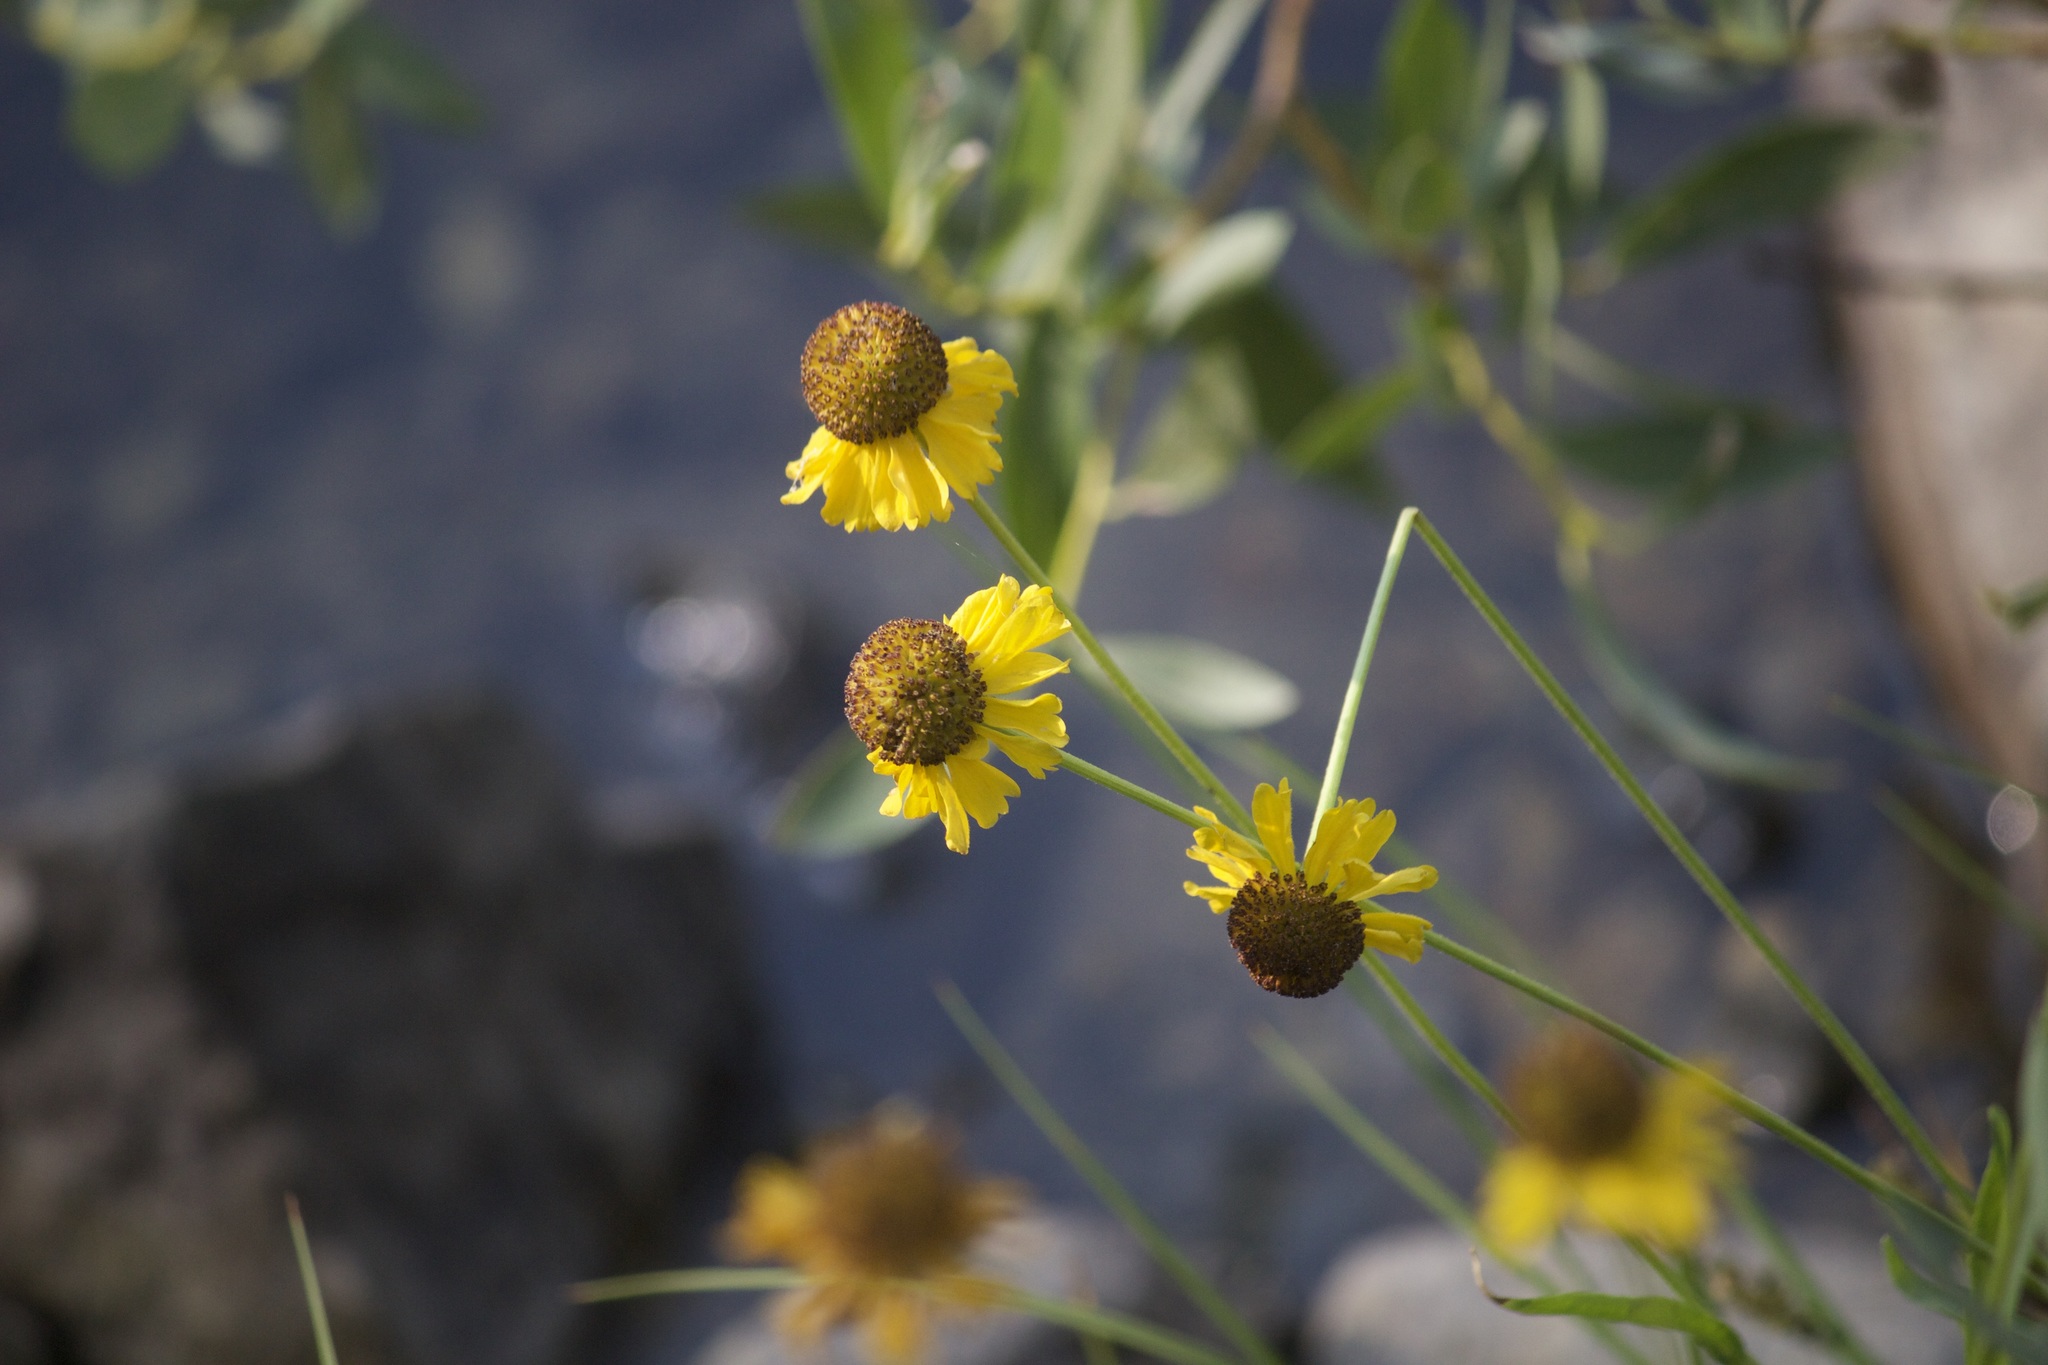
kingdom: Plantae
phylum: Tracheophyta
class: Magnoliopsida
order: Asterales
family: Asteraceae
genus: Helenium
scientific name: Helenium bigelovii
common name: Bigelow's sneezeweed
